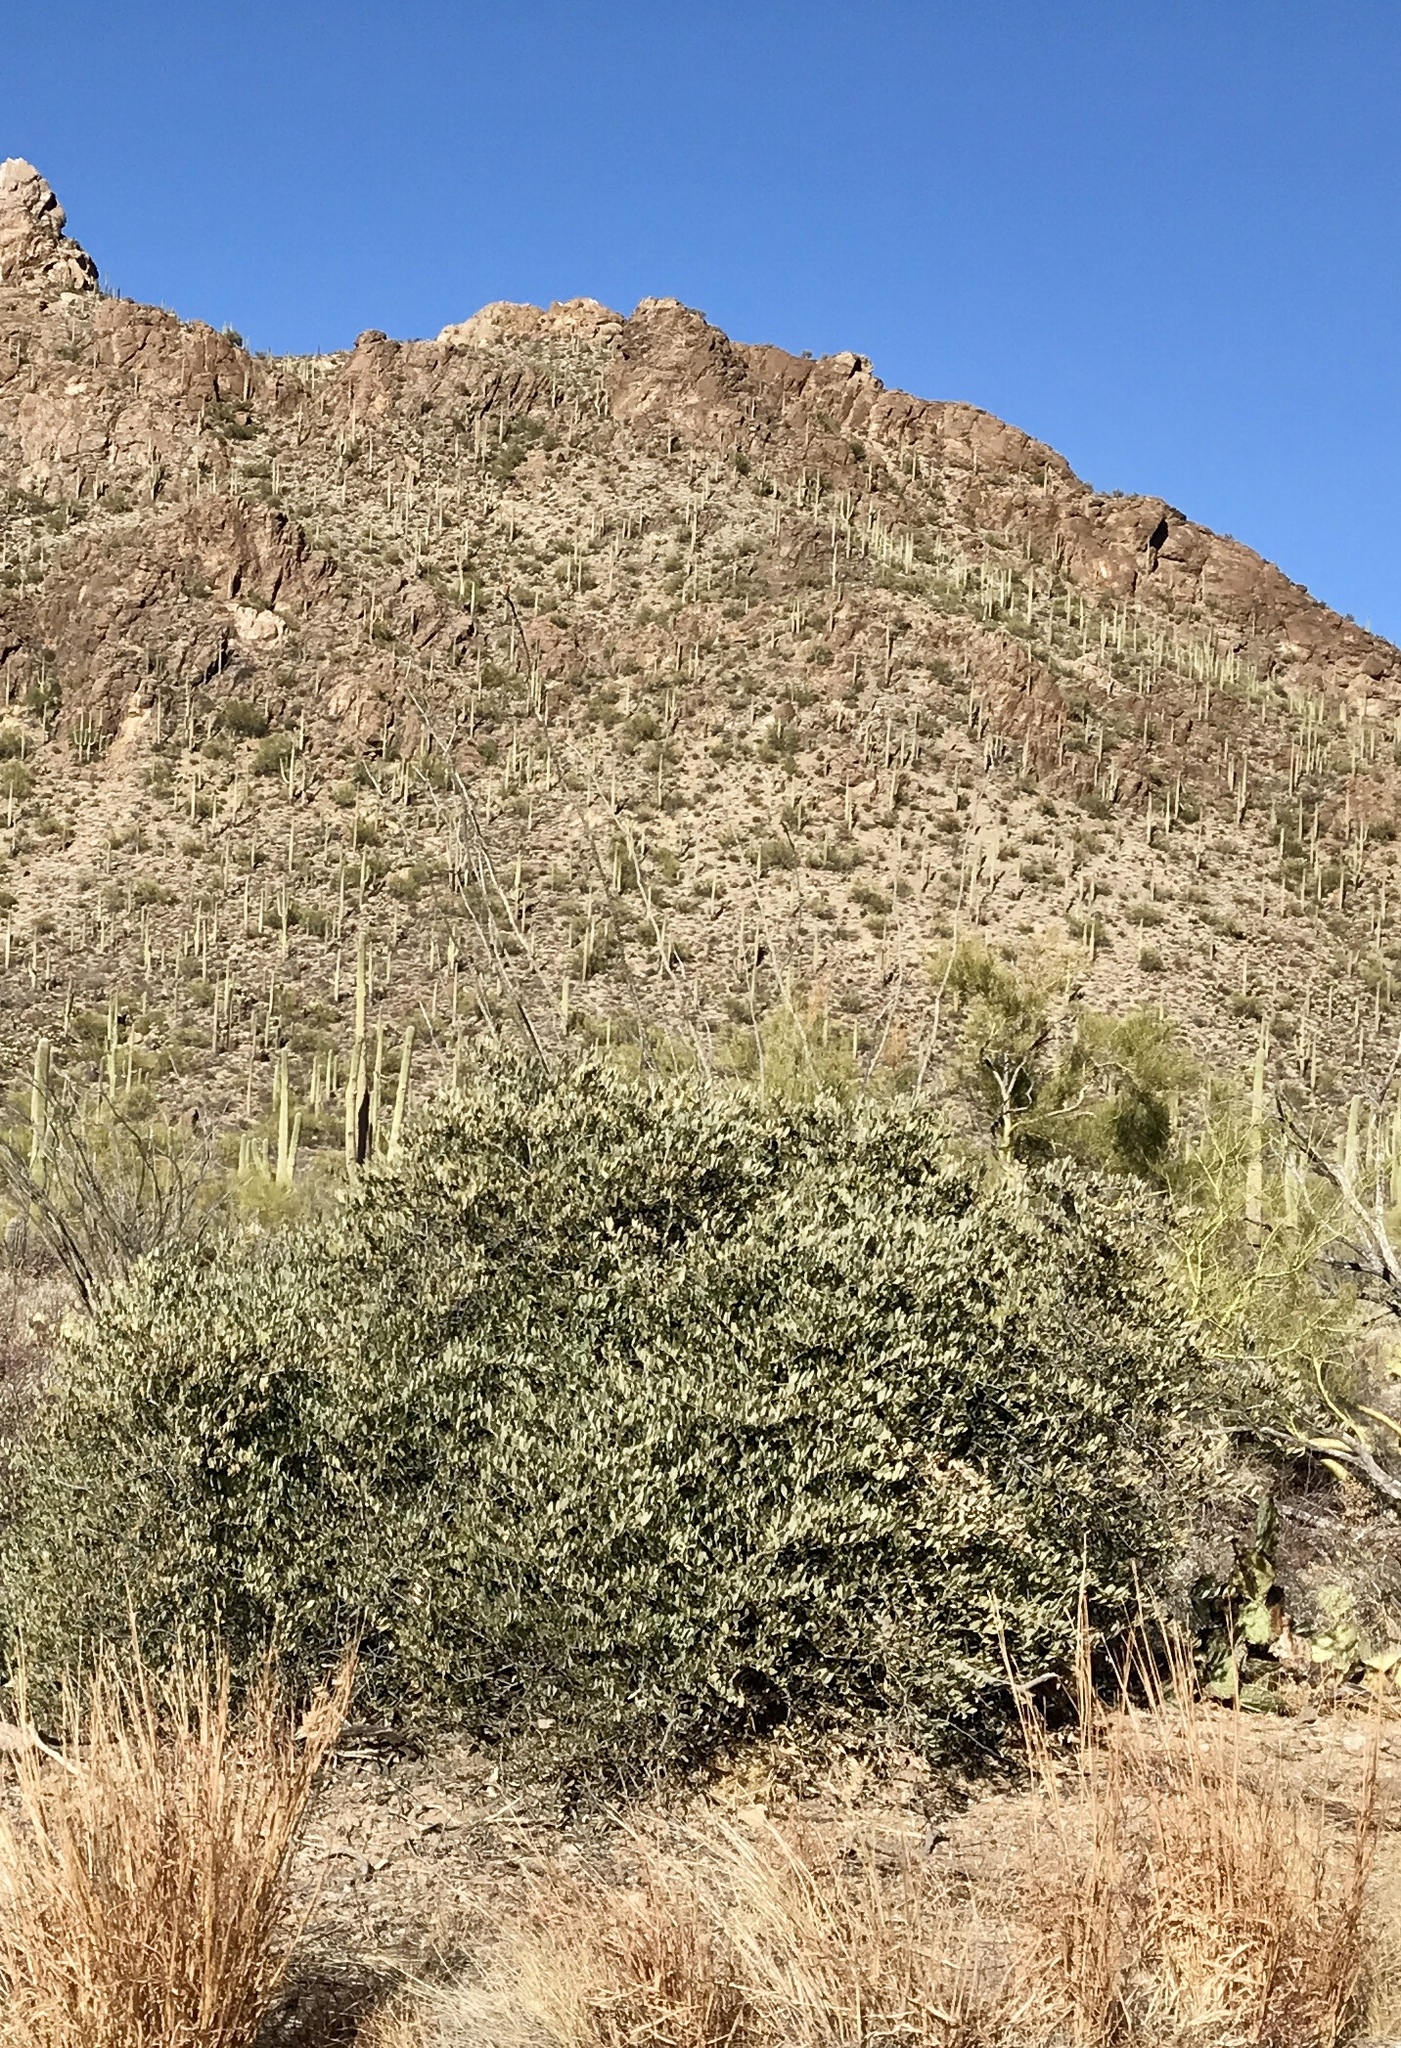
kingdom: Plantae
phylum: Tracheophyta
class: Magnoliopsida
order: Caryophyllales
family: Simmondsiaceae
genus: Simmondsia
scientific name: Simmondsia chinensis
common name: Jojoba
